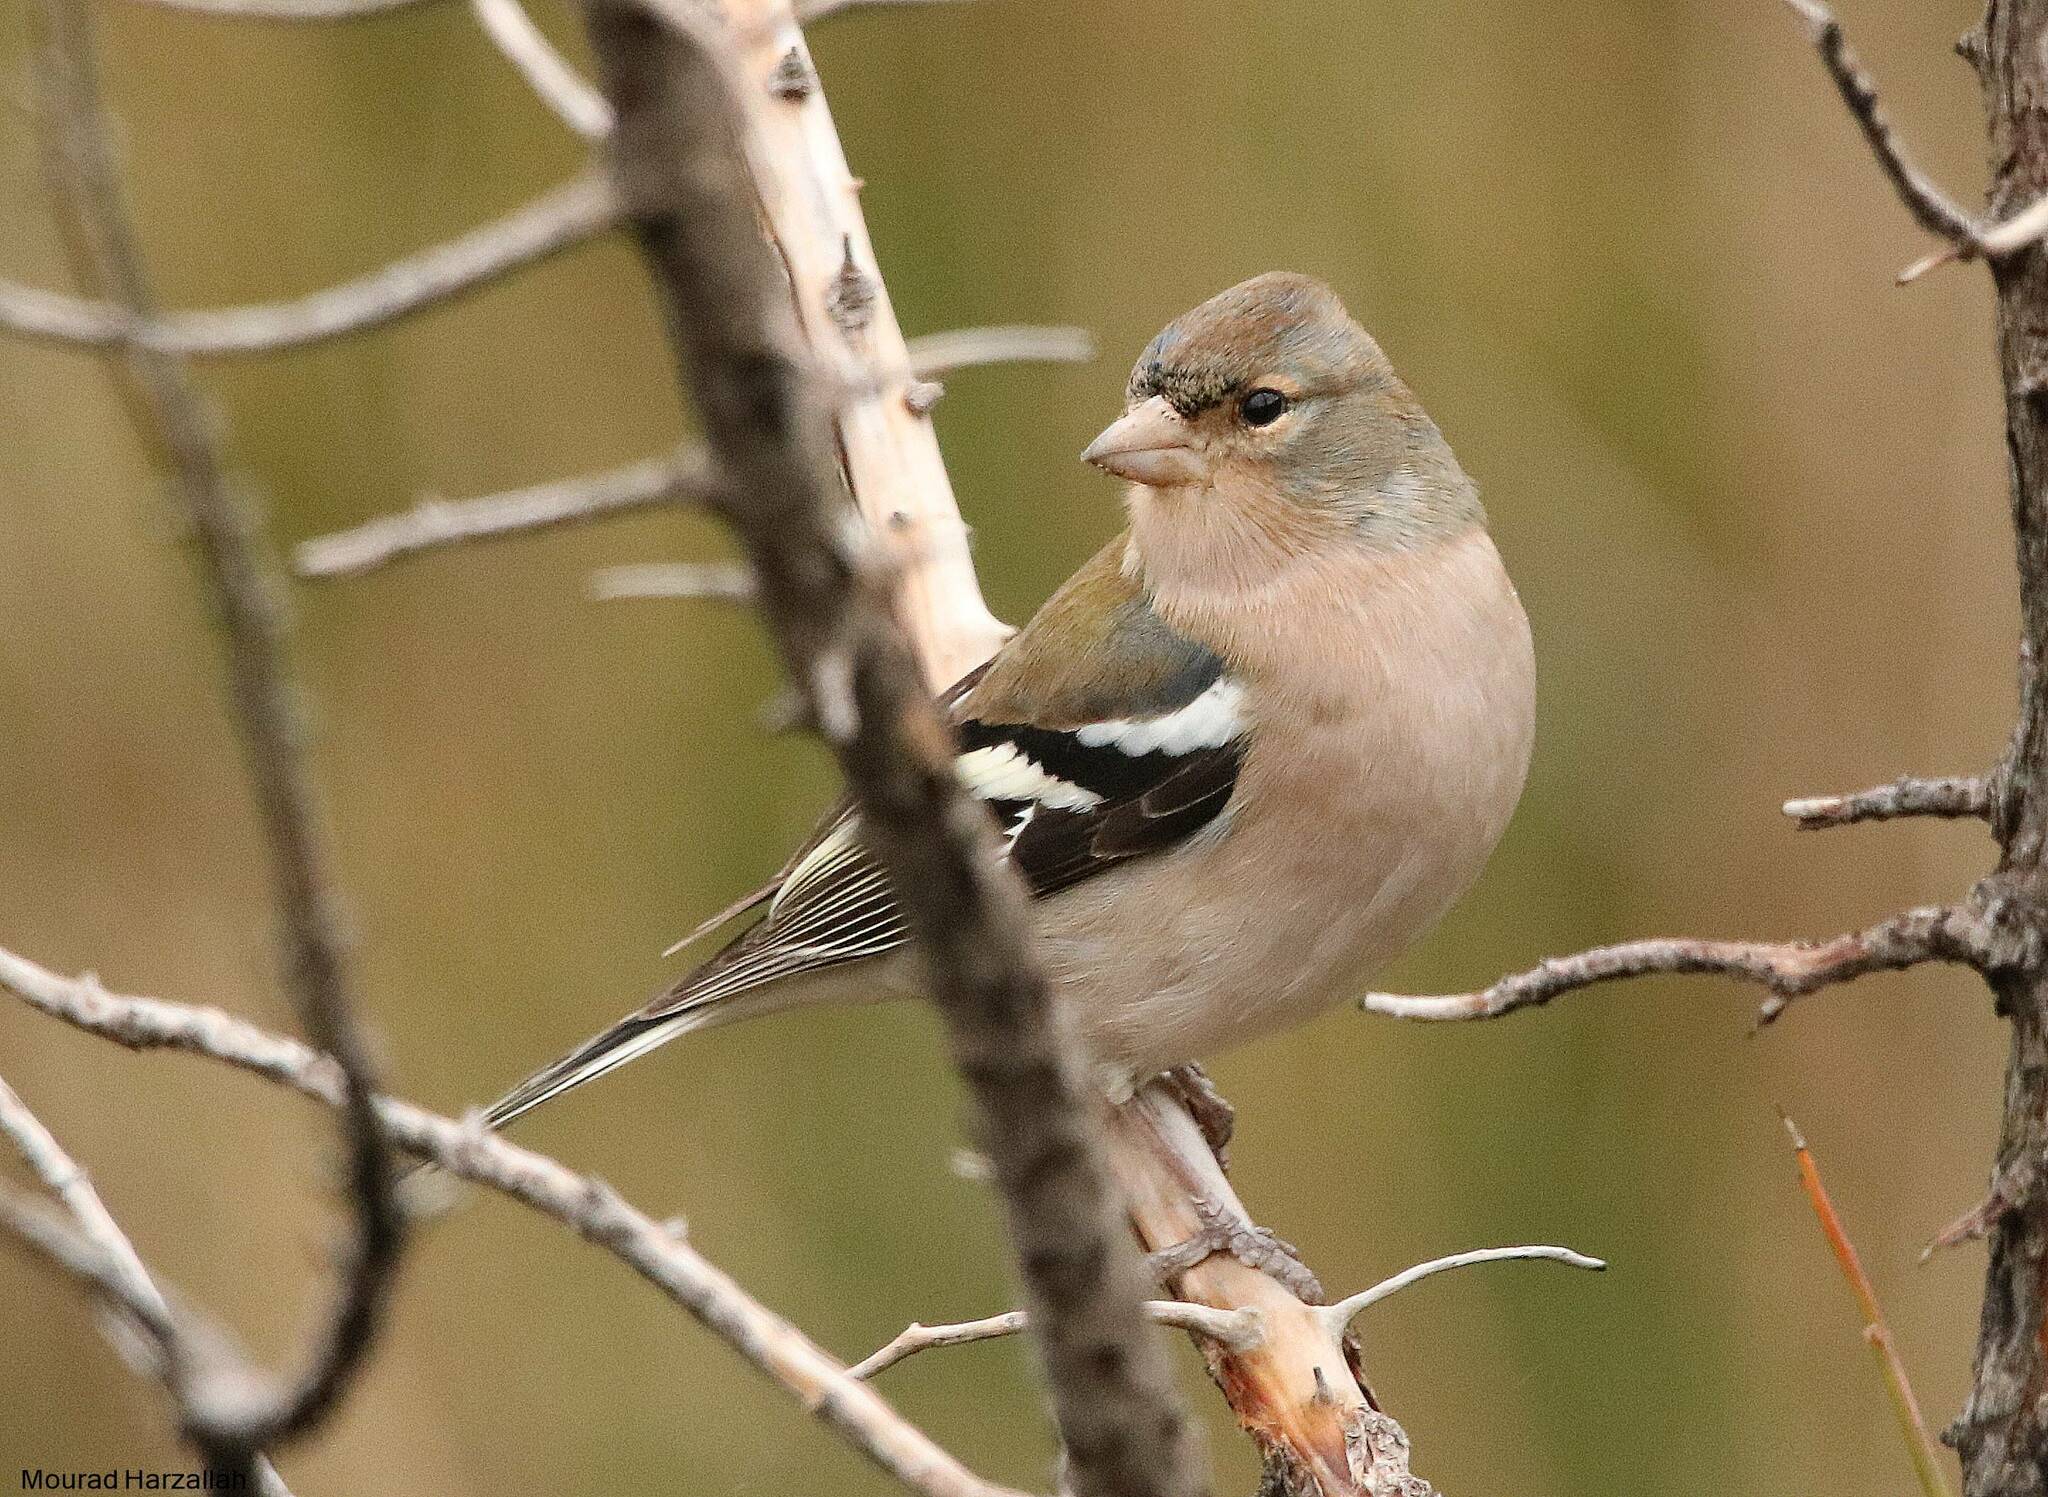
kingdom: Animalia
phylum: Chordata
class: Aves
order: Passeriformes
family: Fringillidae
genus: Fringilla
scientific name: Fringilla spodiogenys
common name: African chaffinch
